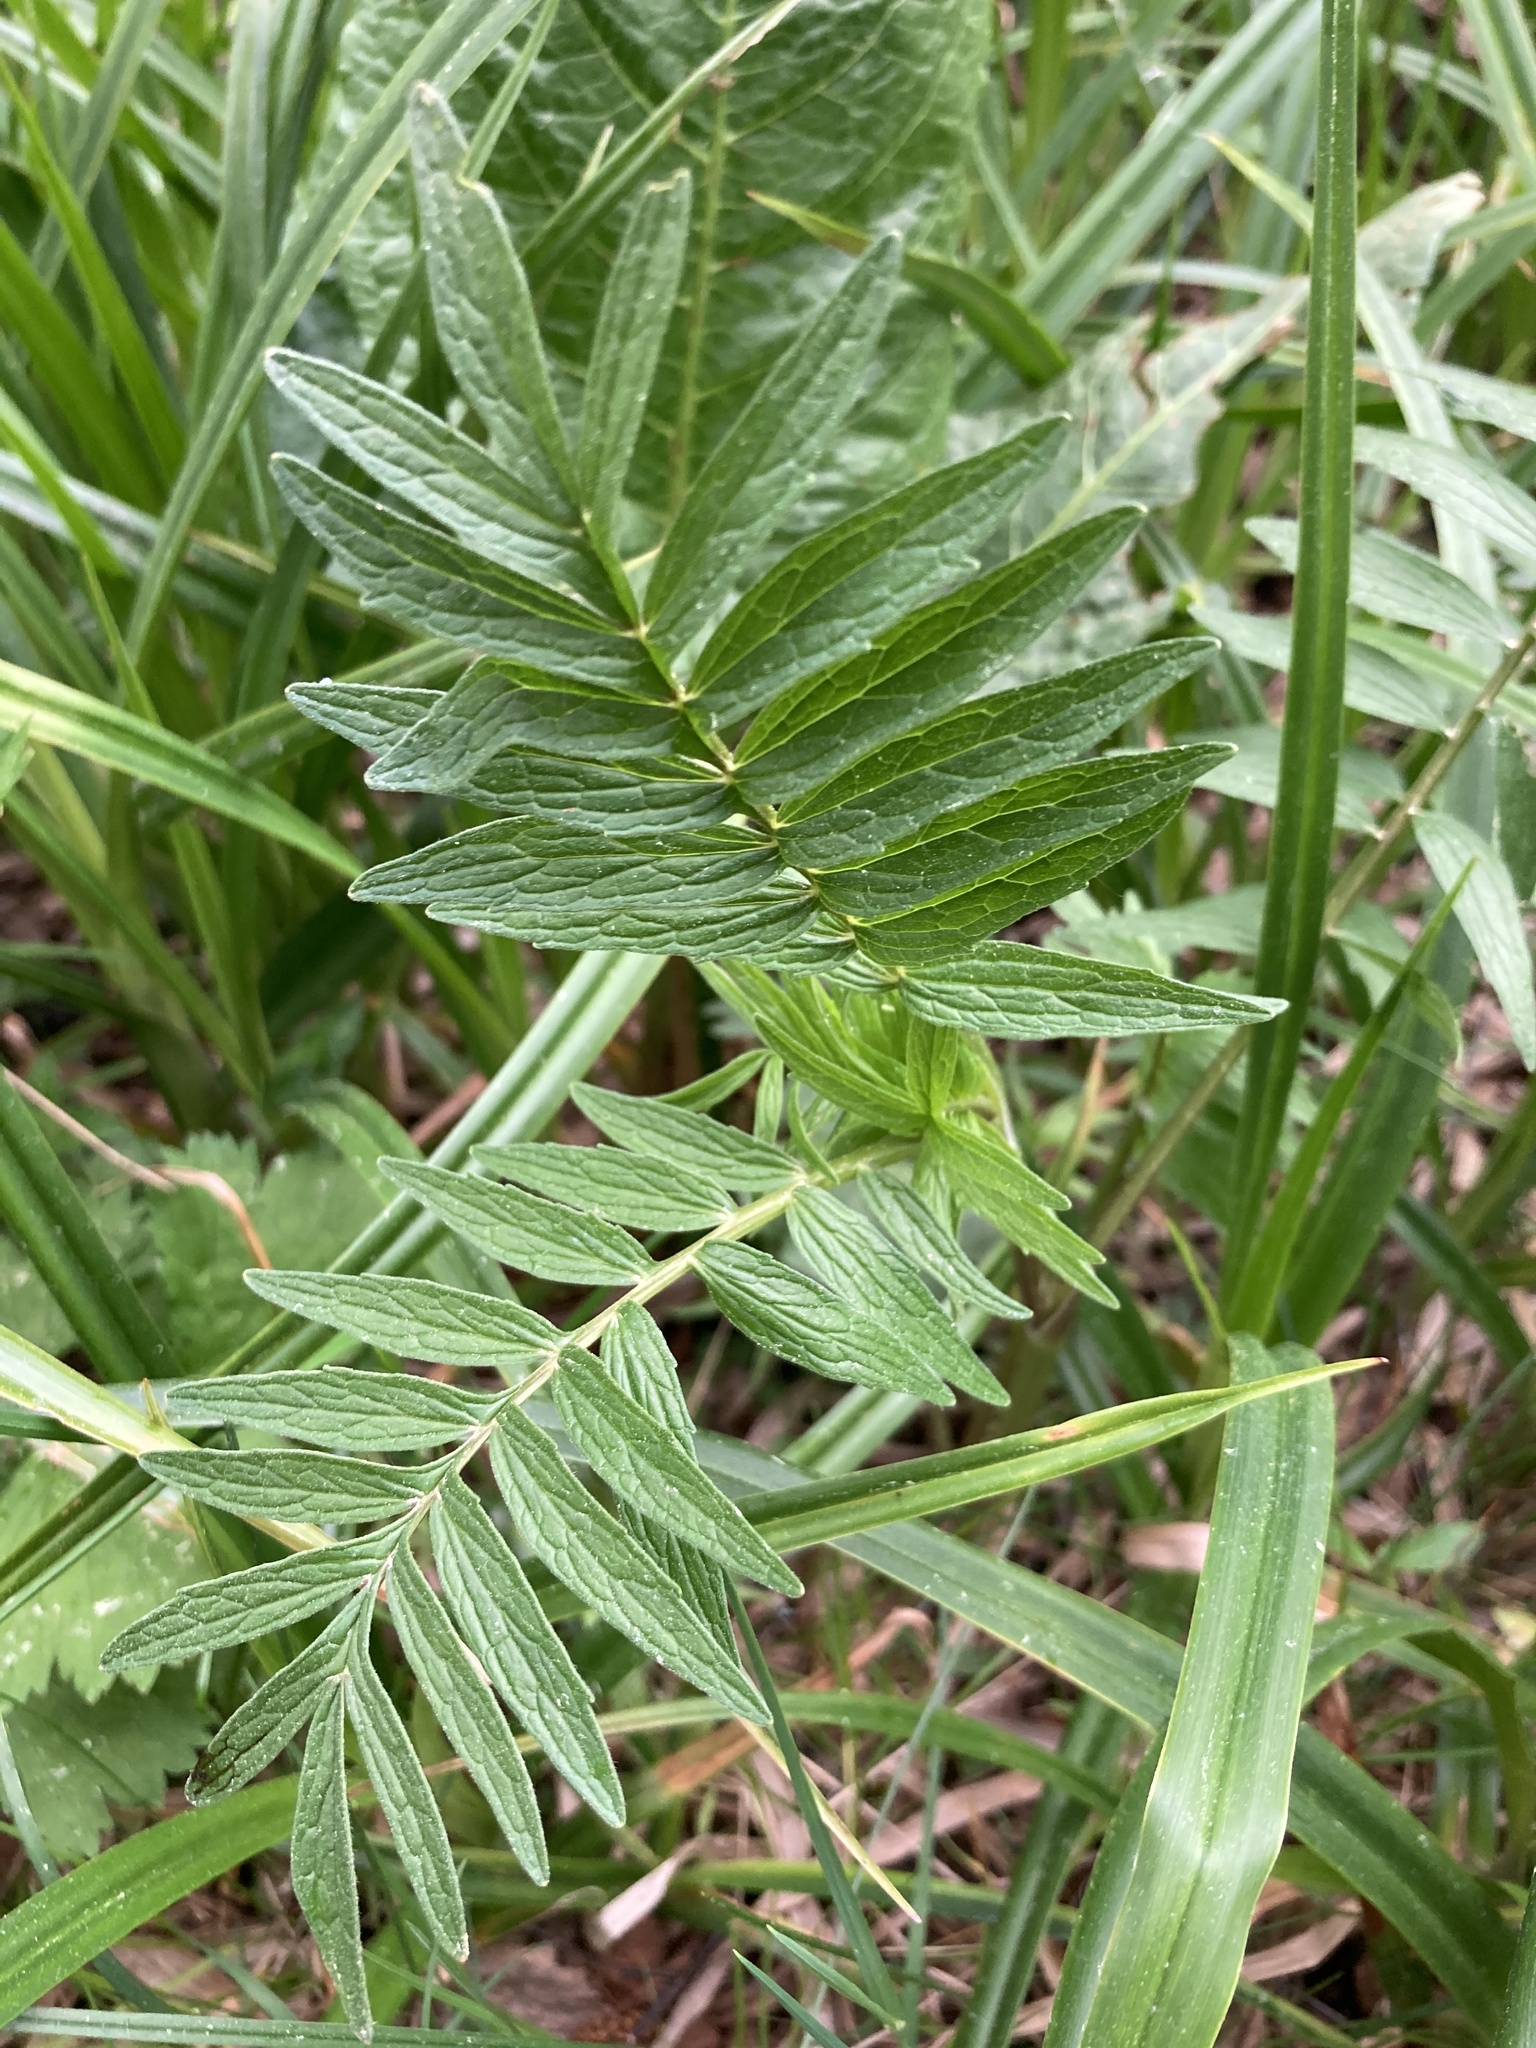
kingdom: Plantae
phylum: Tracheophyta
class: Magnoliopsida
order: Dipsacales
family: Caprifoliaceae
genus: Valeriana
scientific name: Valeriana officinalis
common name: Common valerian
